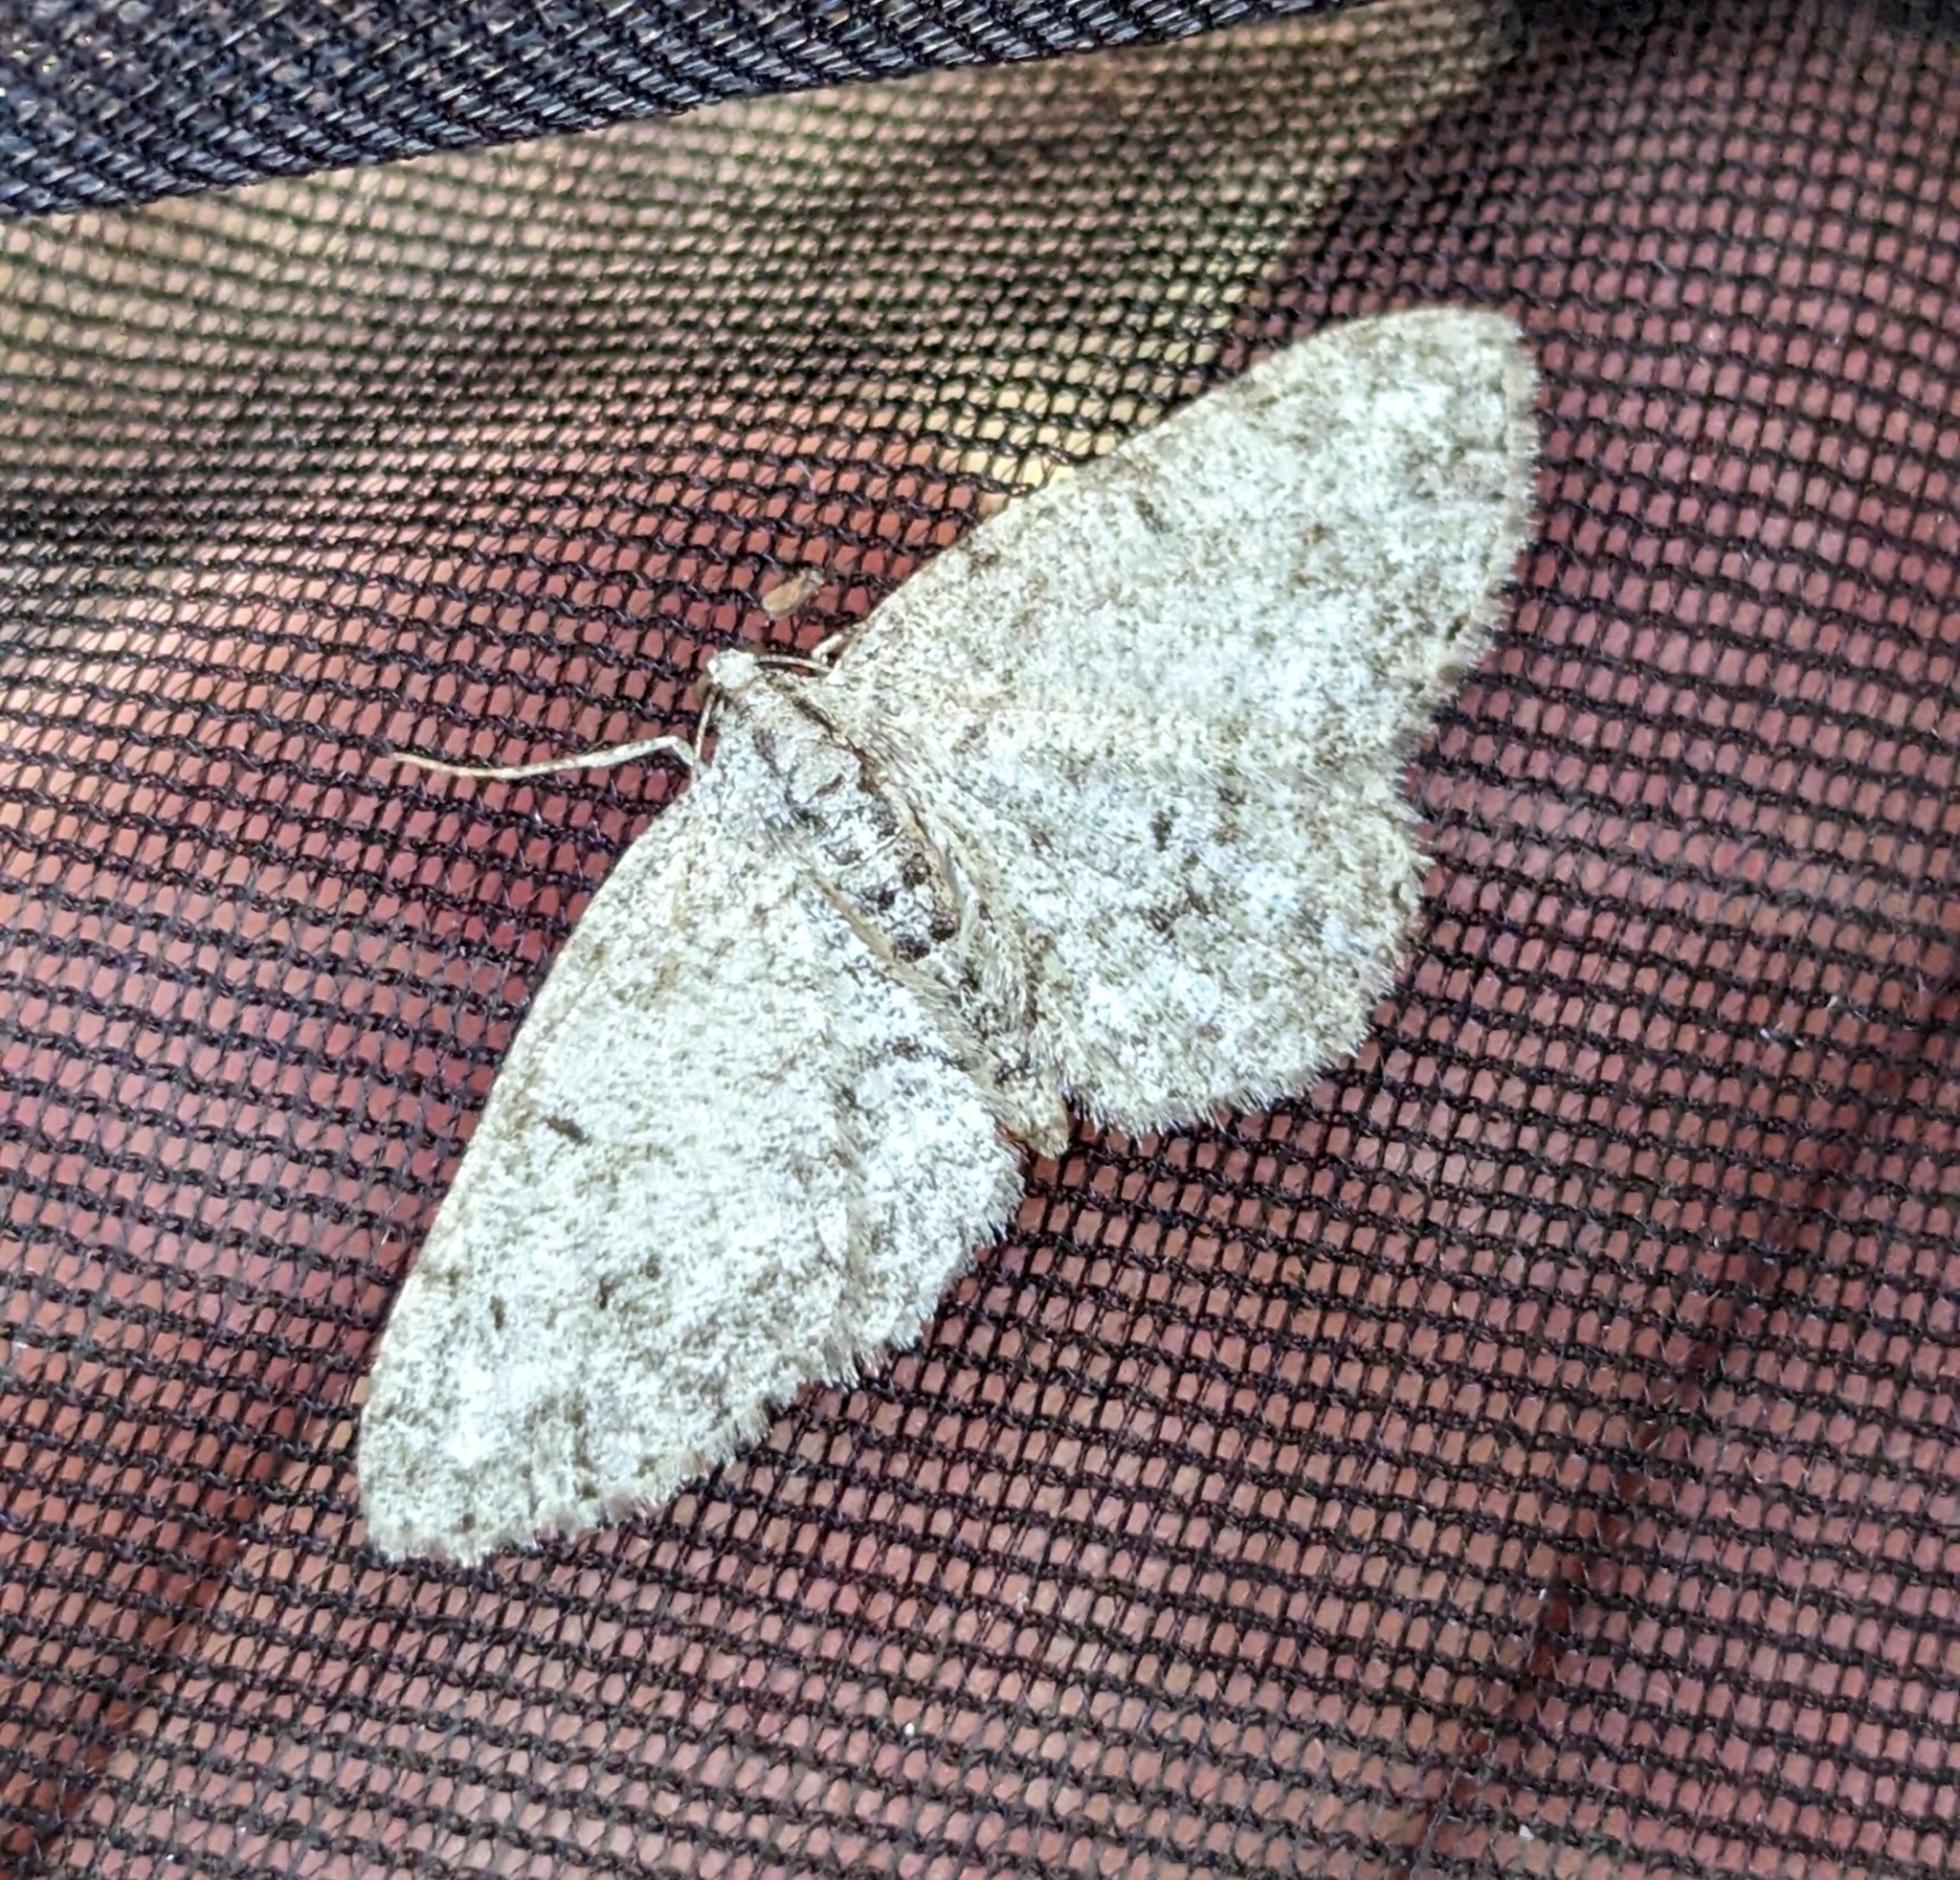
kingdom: Animalia
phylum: Arthropoda
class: Insecta
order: Lepidoptera
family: Geometridae
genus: Protoboarmia
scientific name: Protoboarmia porcelaria
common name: Porcelain gray
